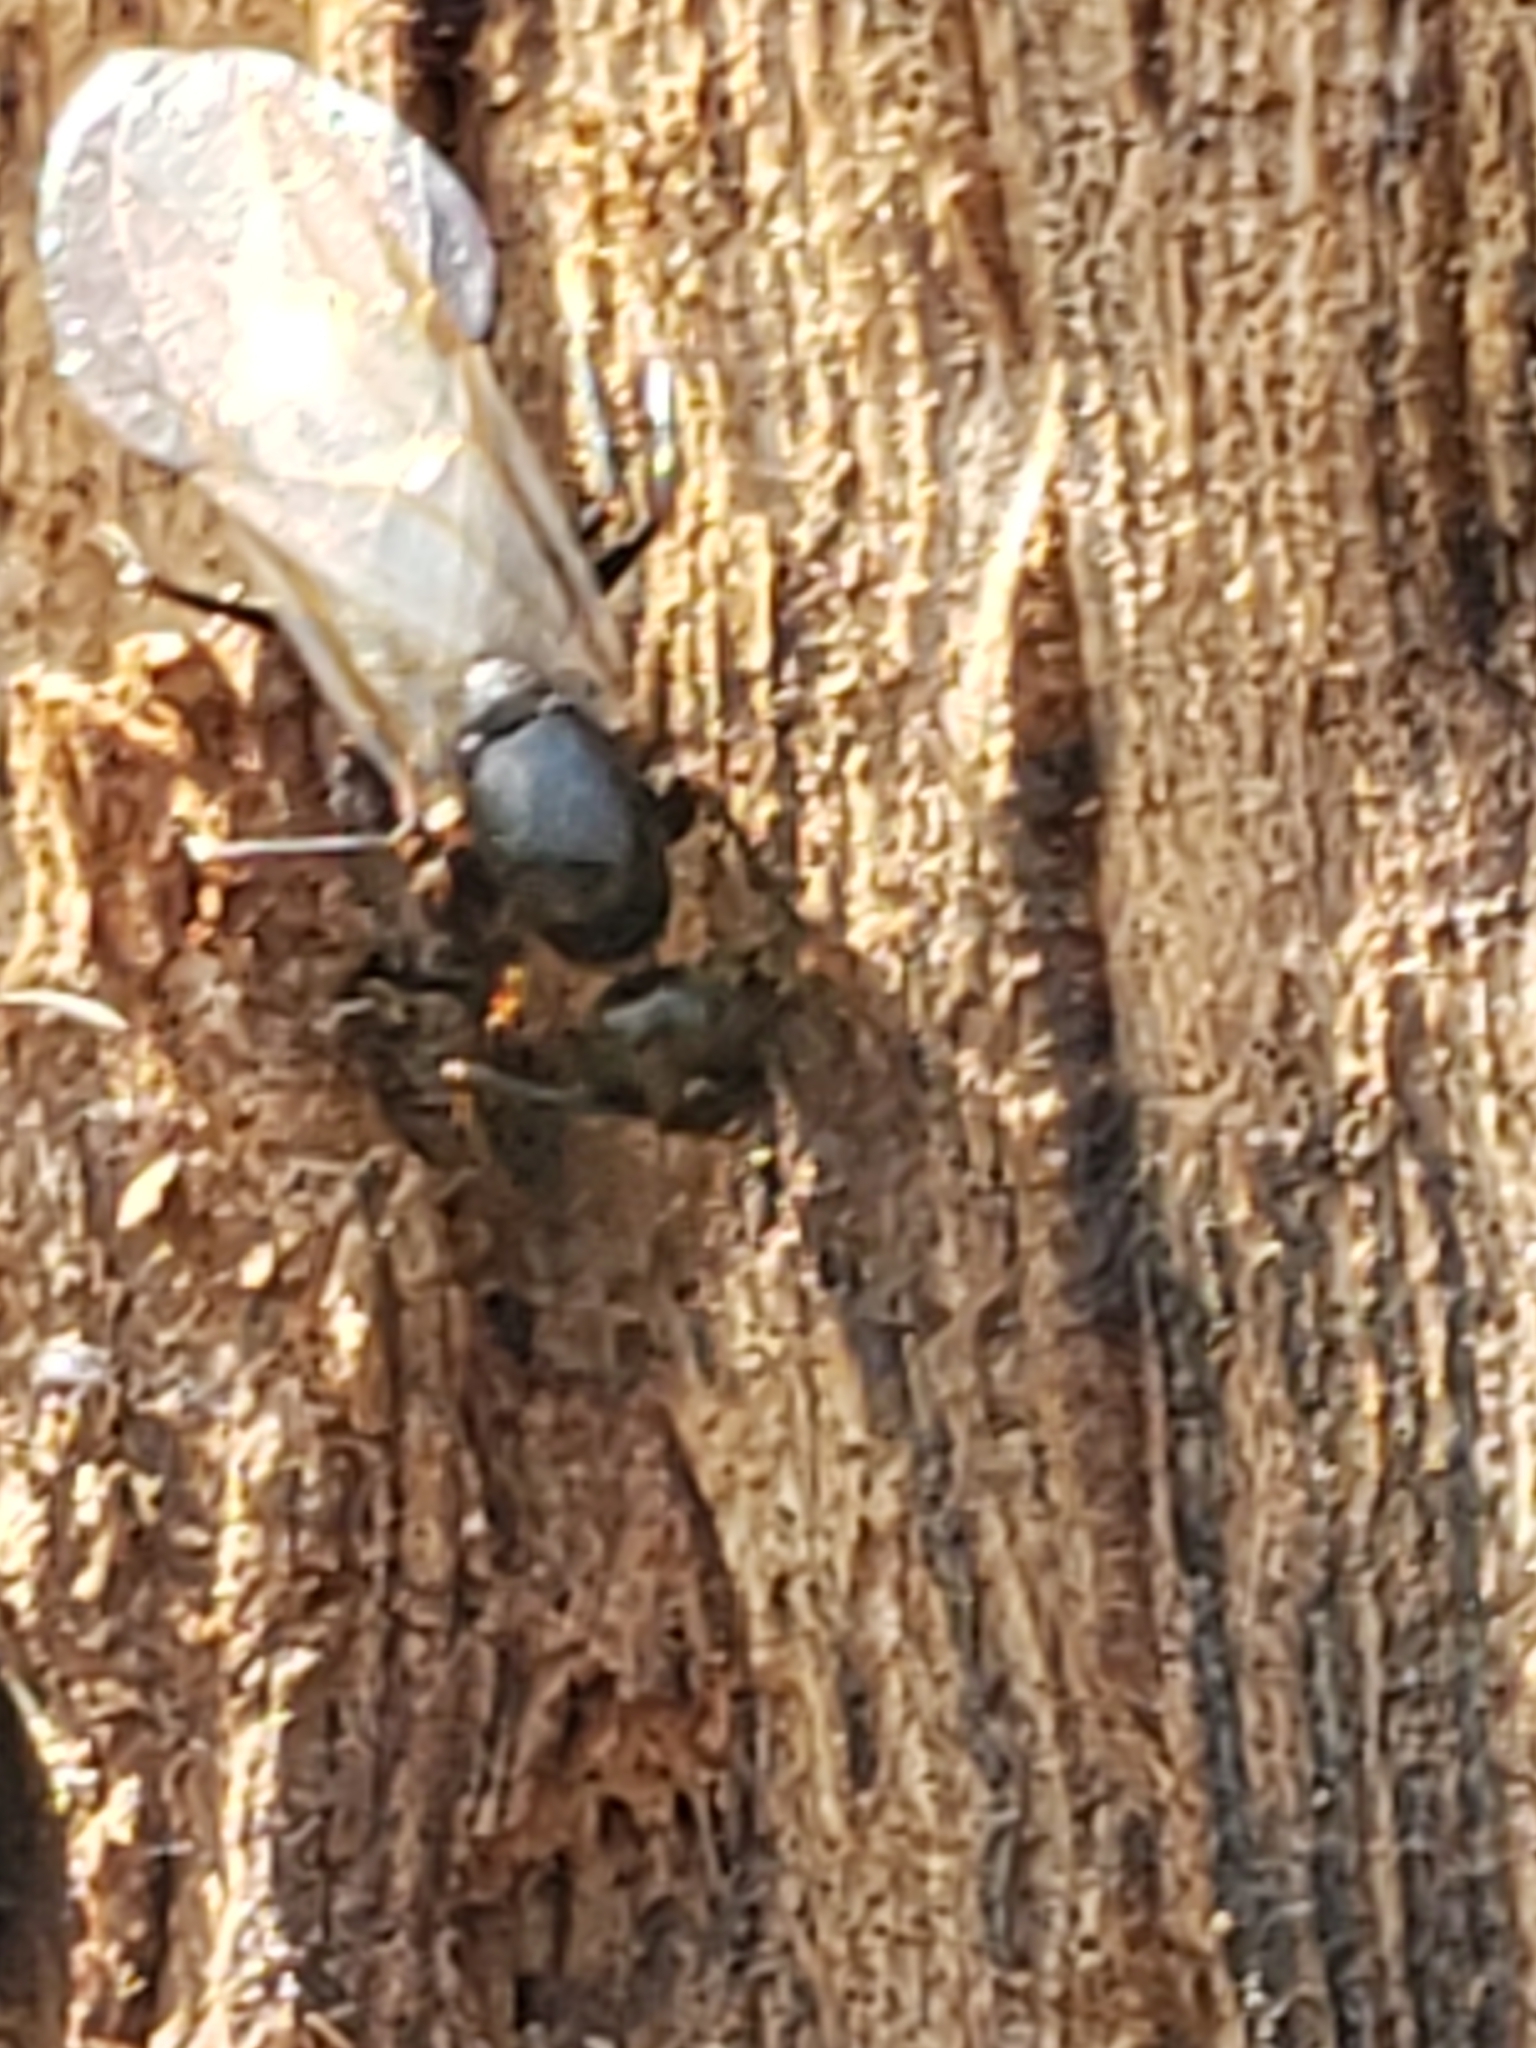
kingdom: Animalia
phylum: Arthropoda
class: Insecta
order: Hymenoptera
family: Formicidae
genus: Camponotus
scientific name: Camponotus pennsylvanicus
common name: Black carpenter ant
